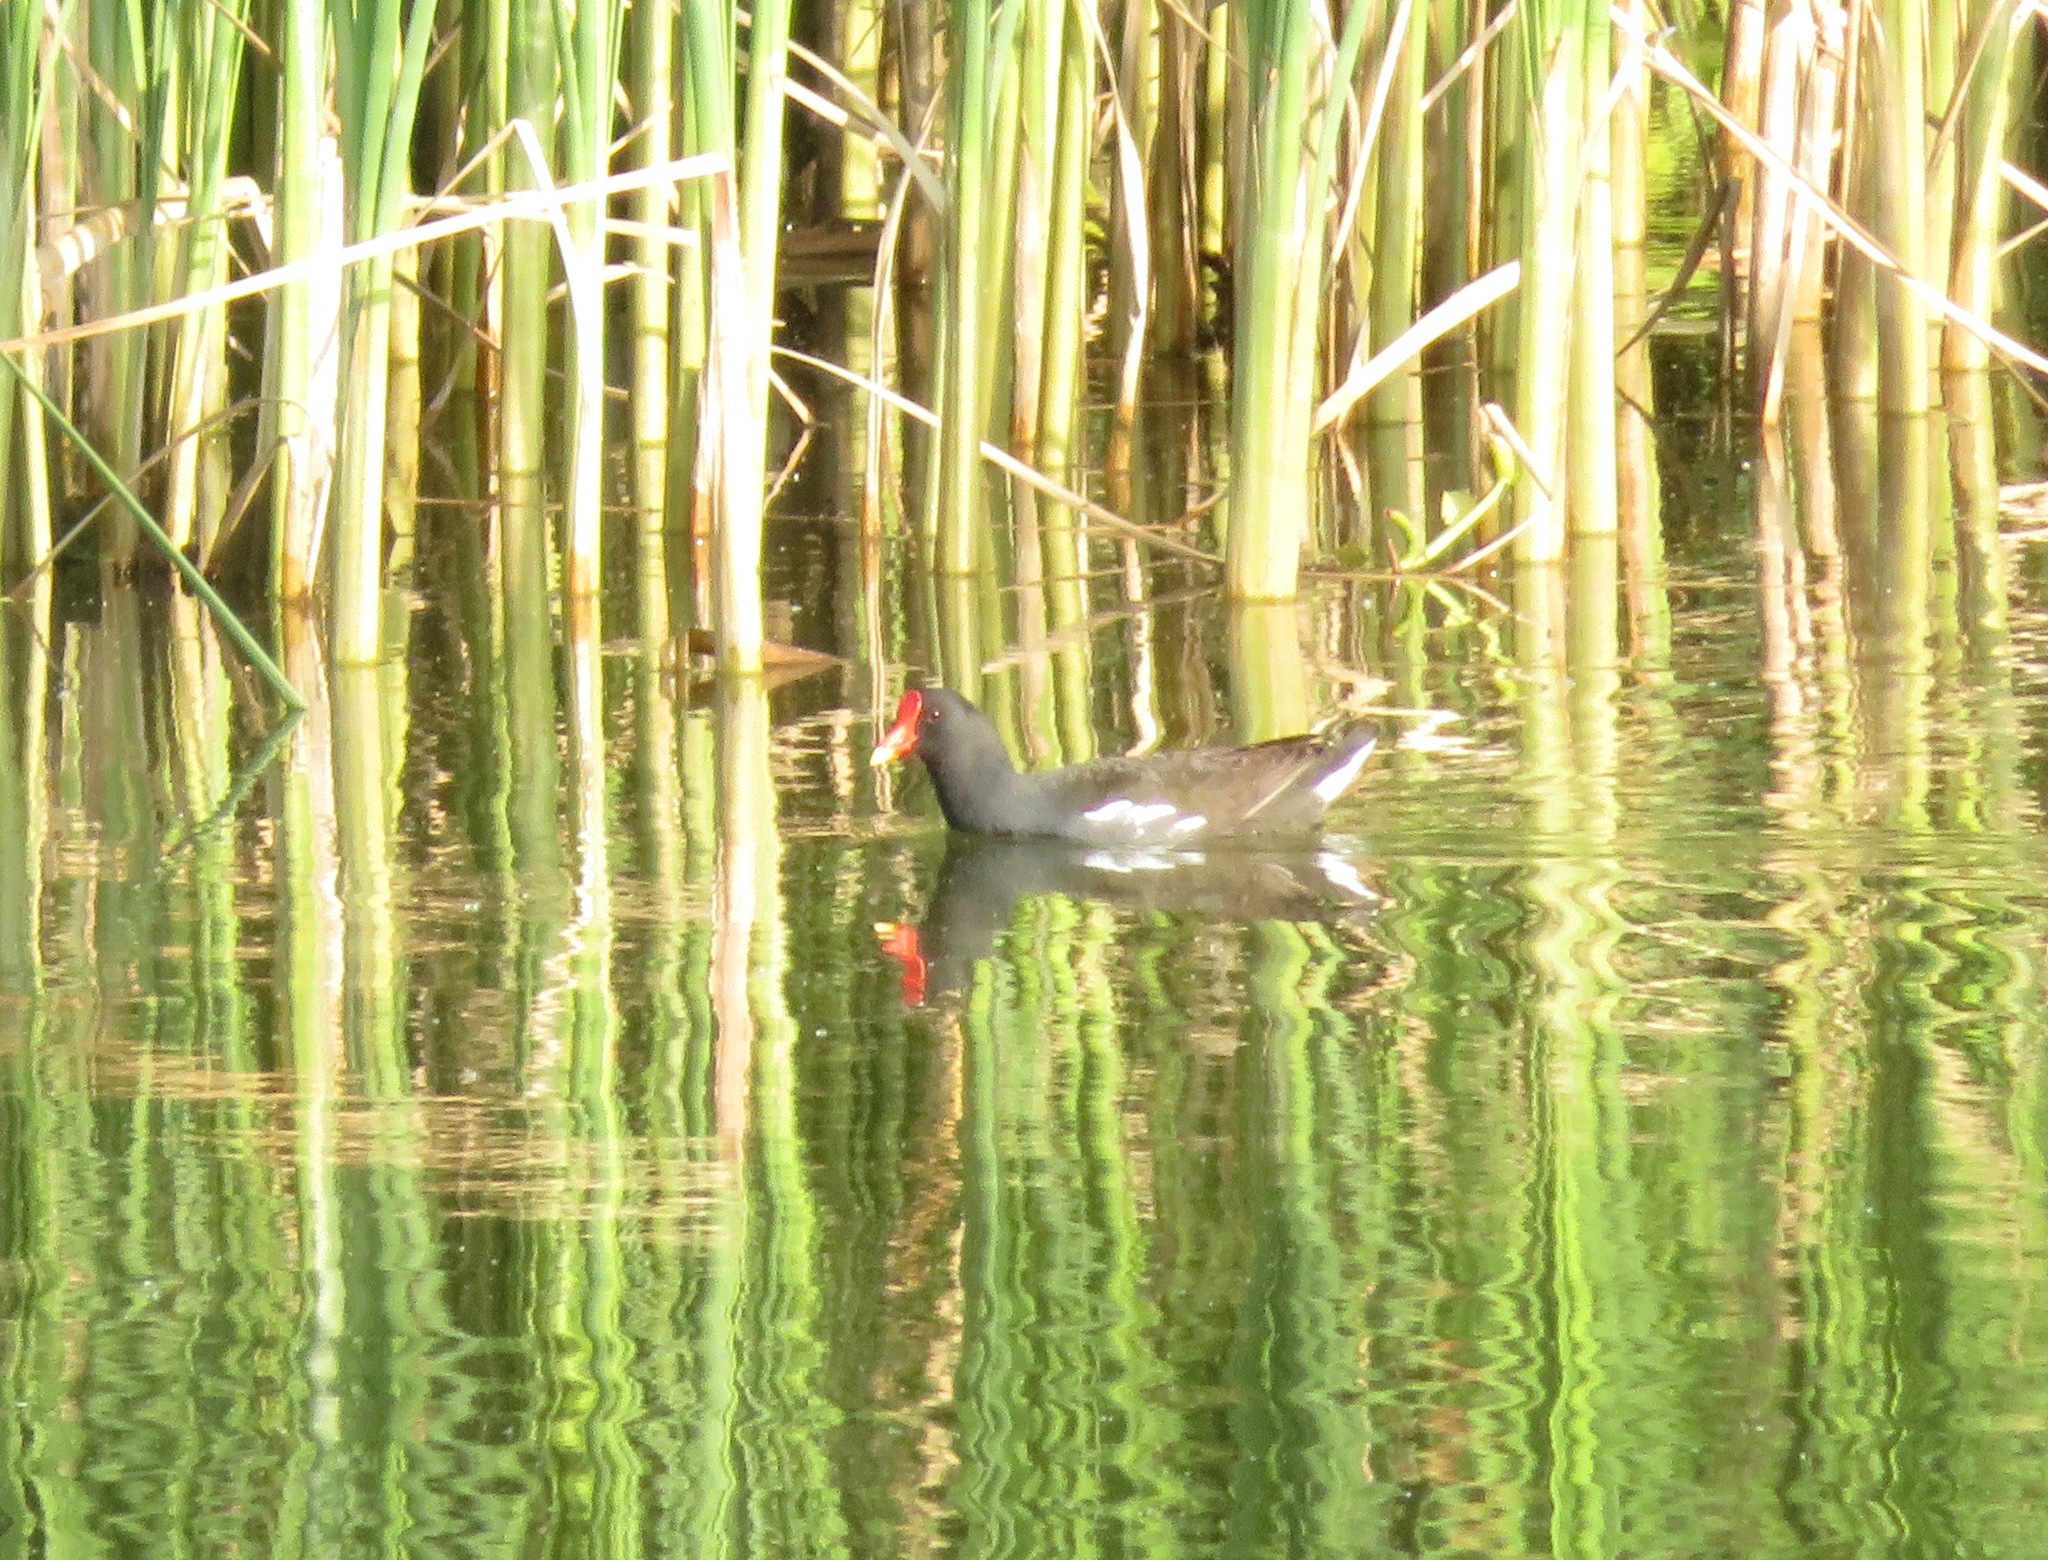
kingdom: Animalia
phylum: Chordata
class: Aves
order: Gruiformes
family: Rallidae
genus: Gallinula
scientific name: Gallinula chloropus
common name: Common moorhen
